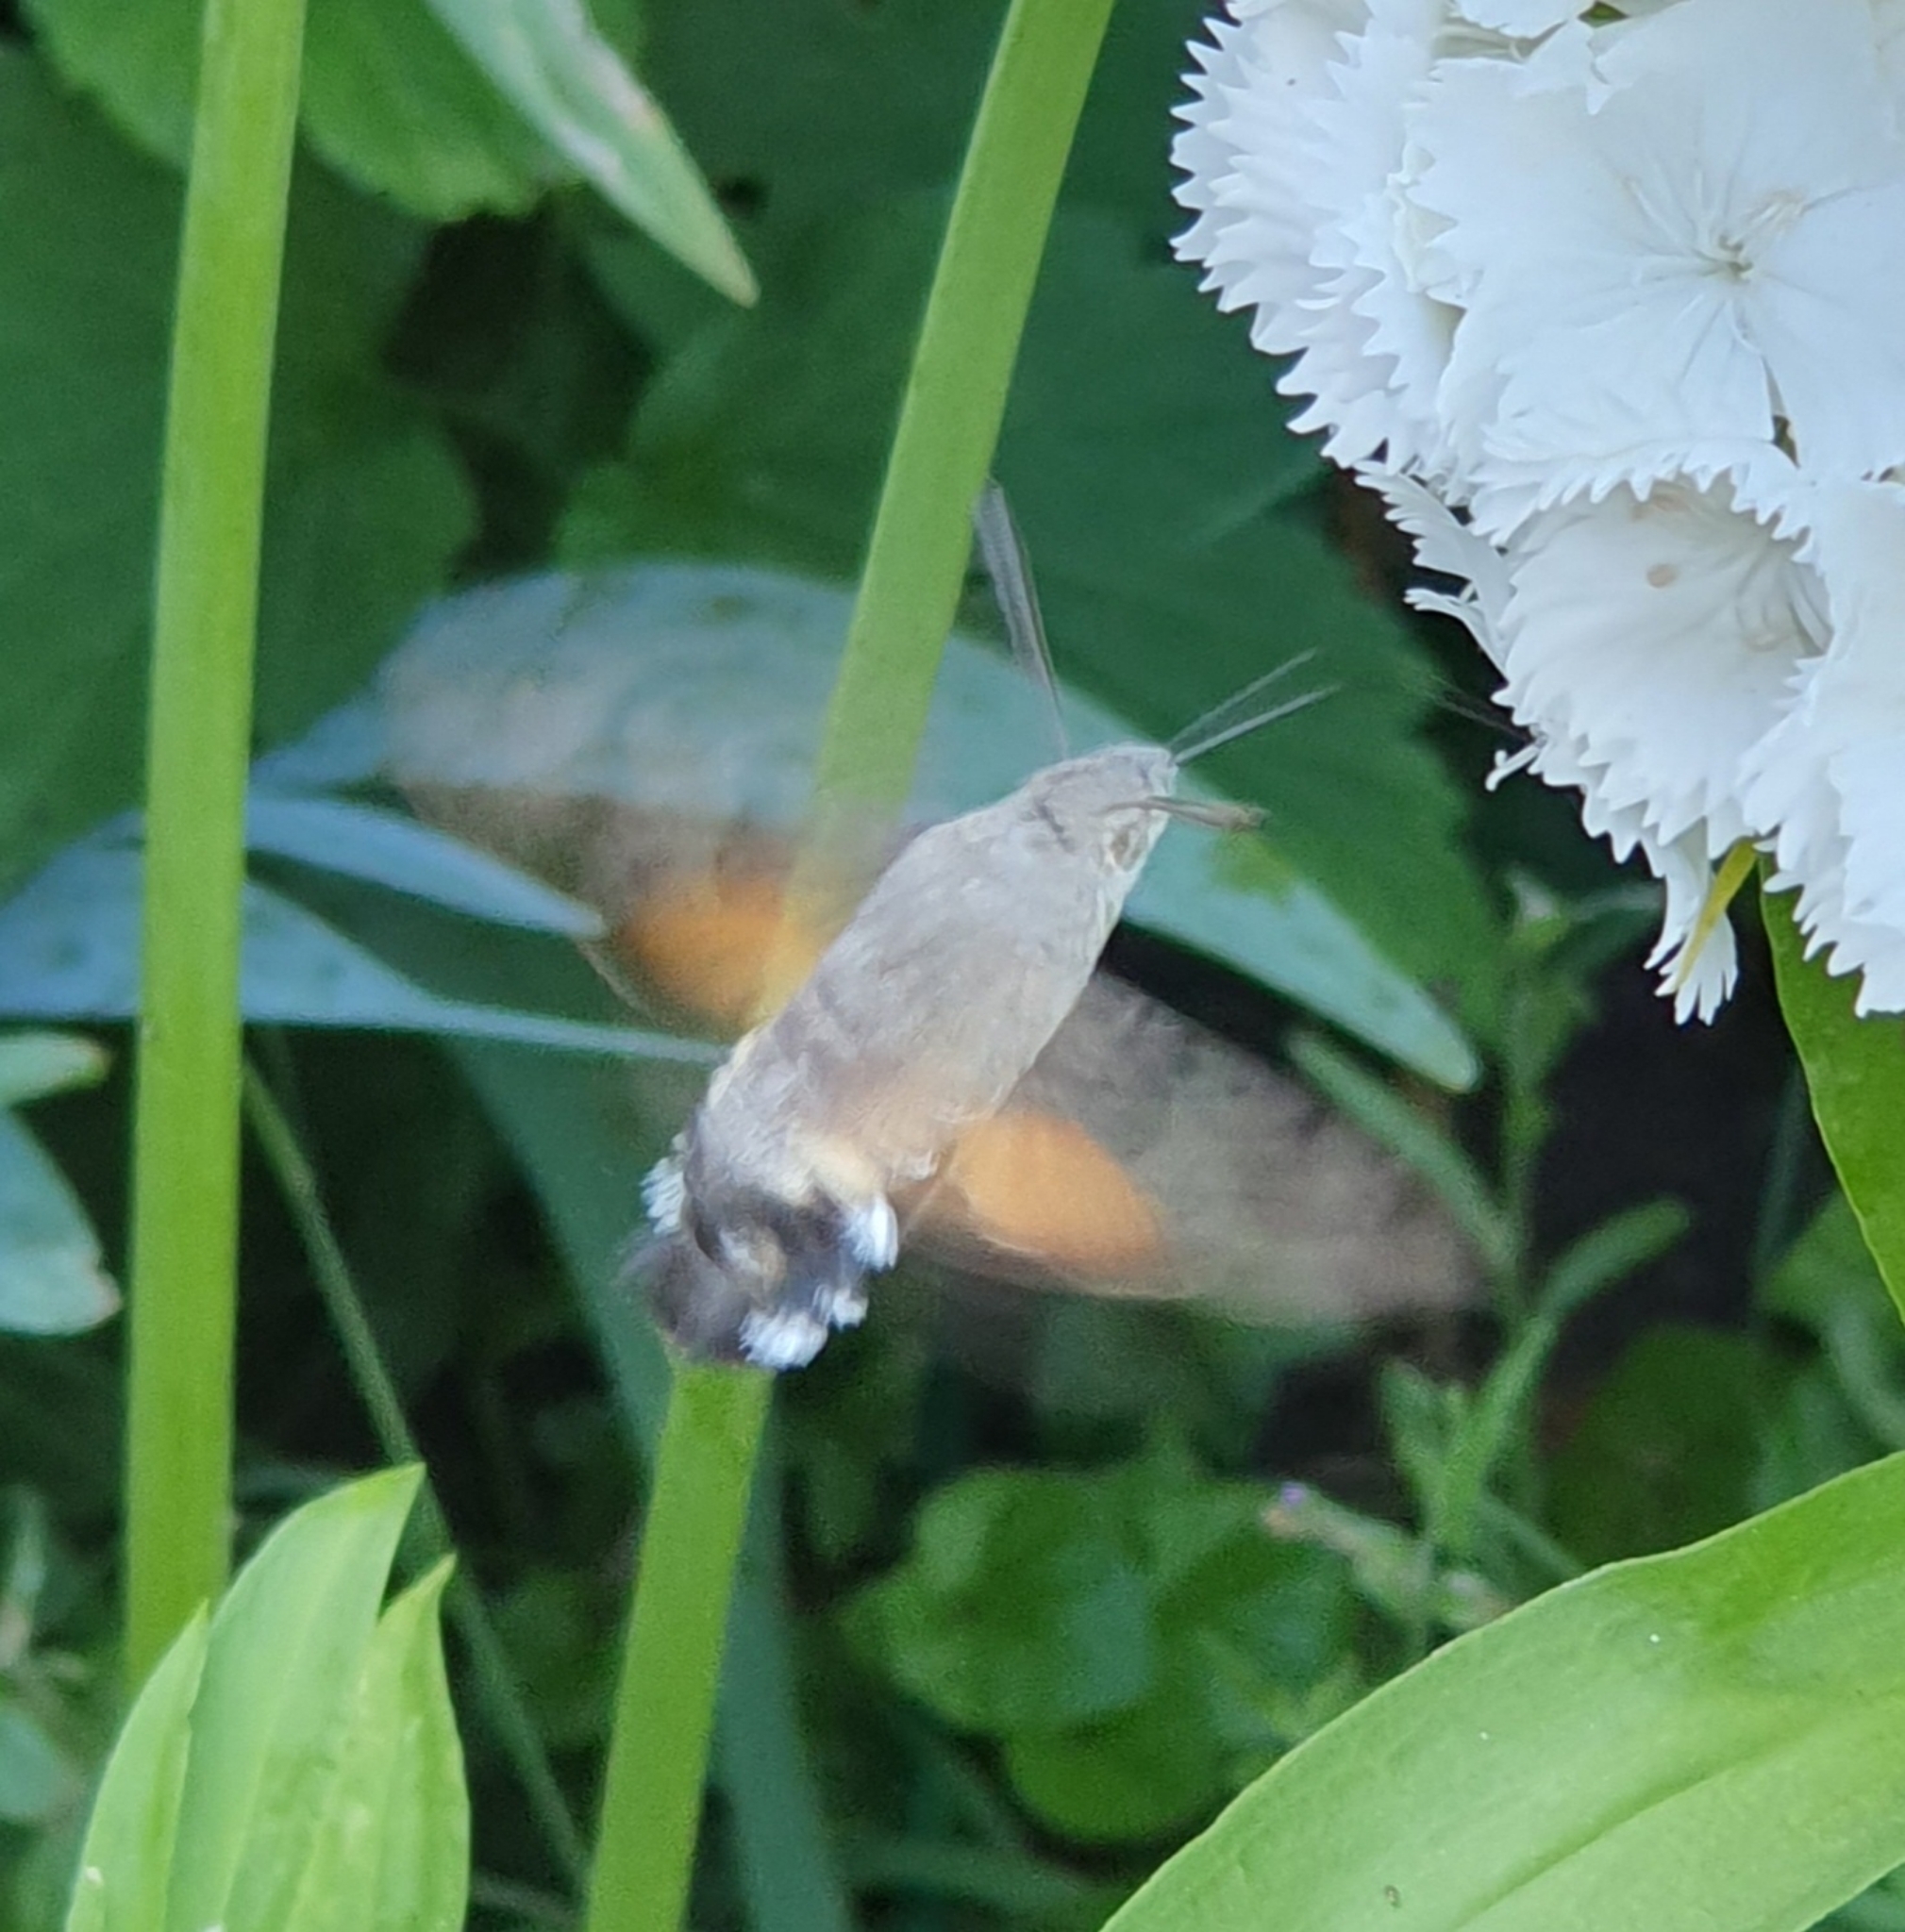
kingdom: Animalia
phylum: Arthropoda
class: Insecta
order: Lepidoptera
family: Sphingidae
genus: Macroglossum
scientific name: Macroglossum stellatarum
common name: Humming-bird hawk-moth
